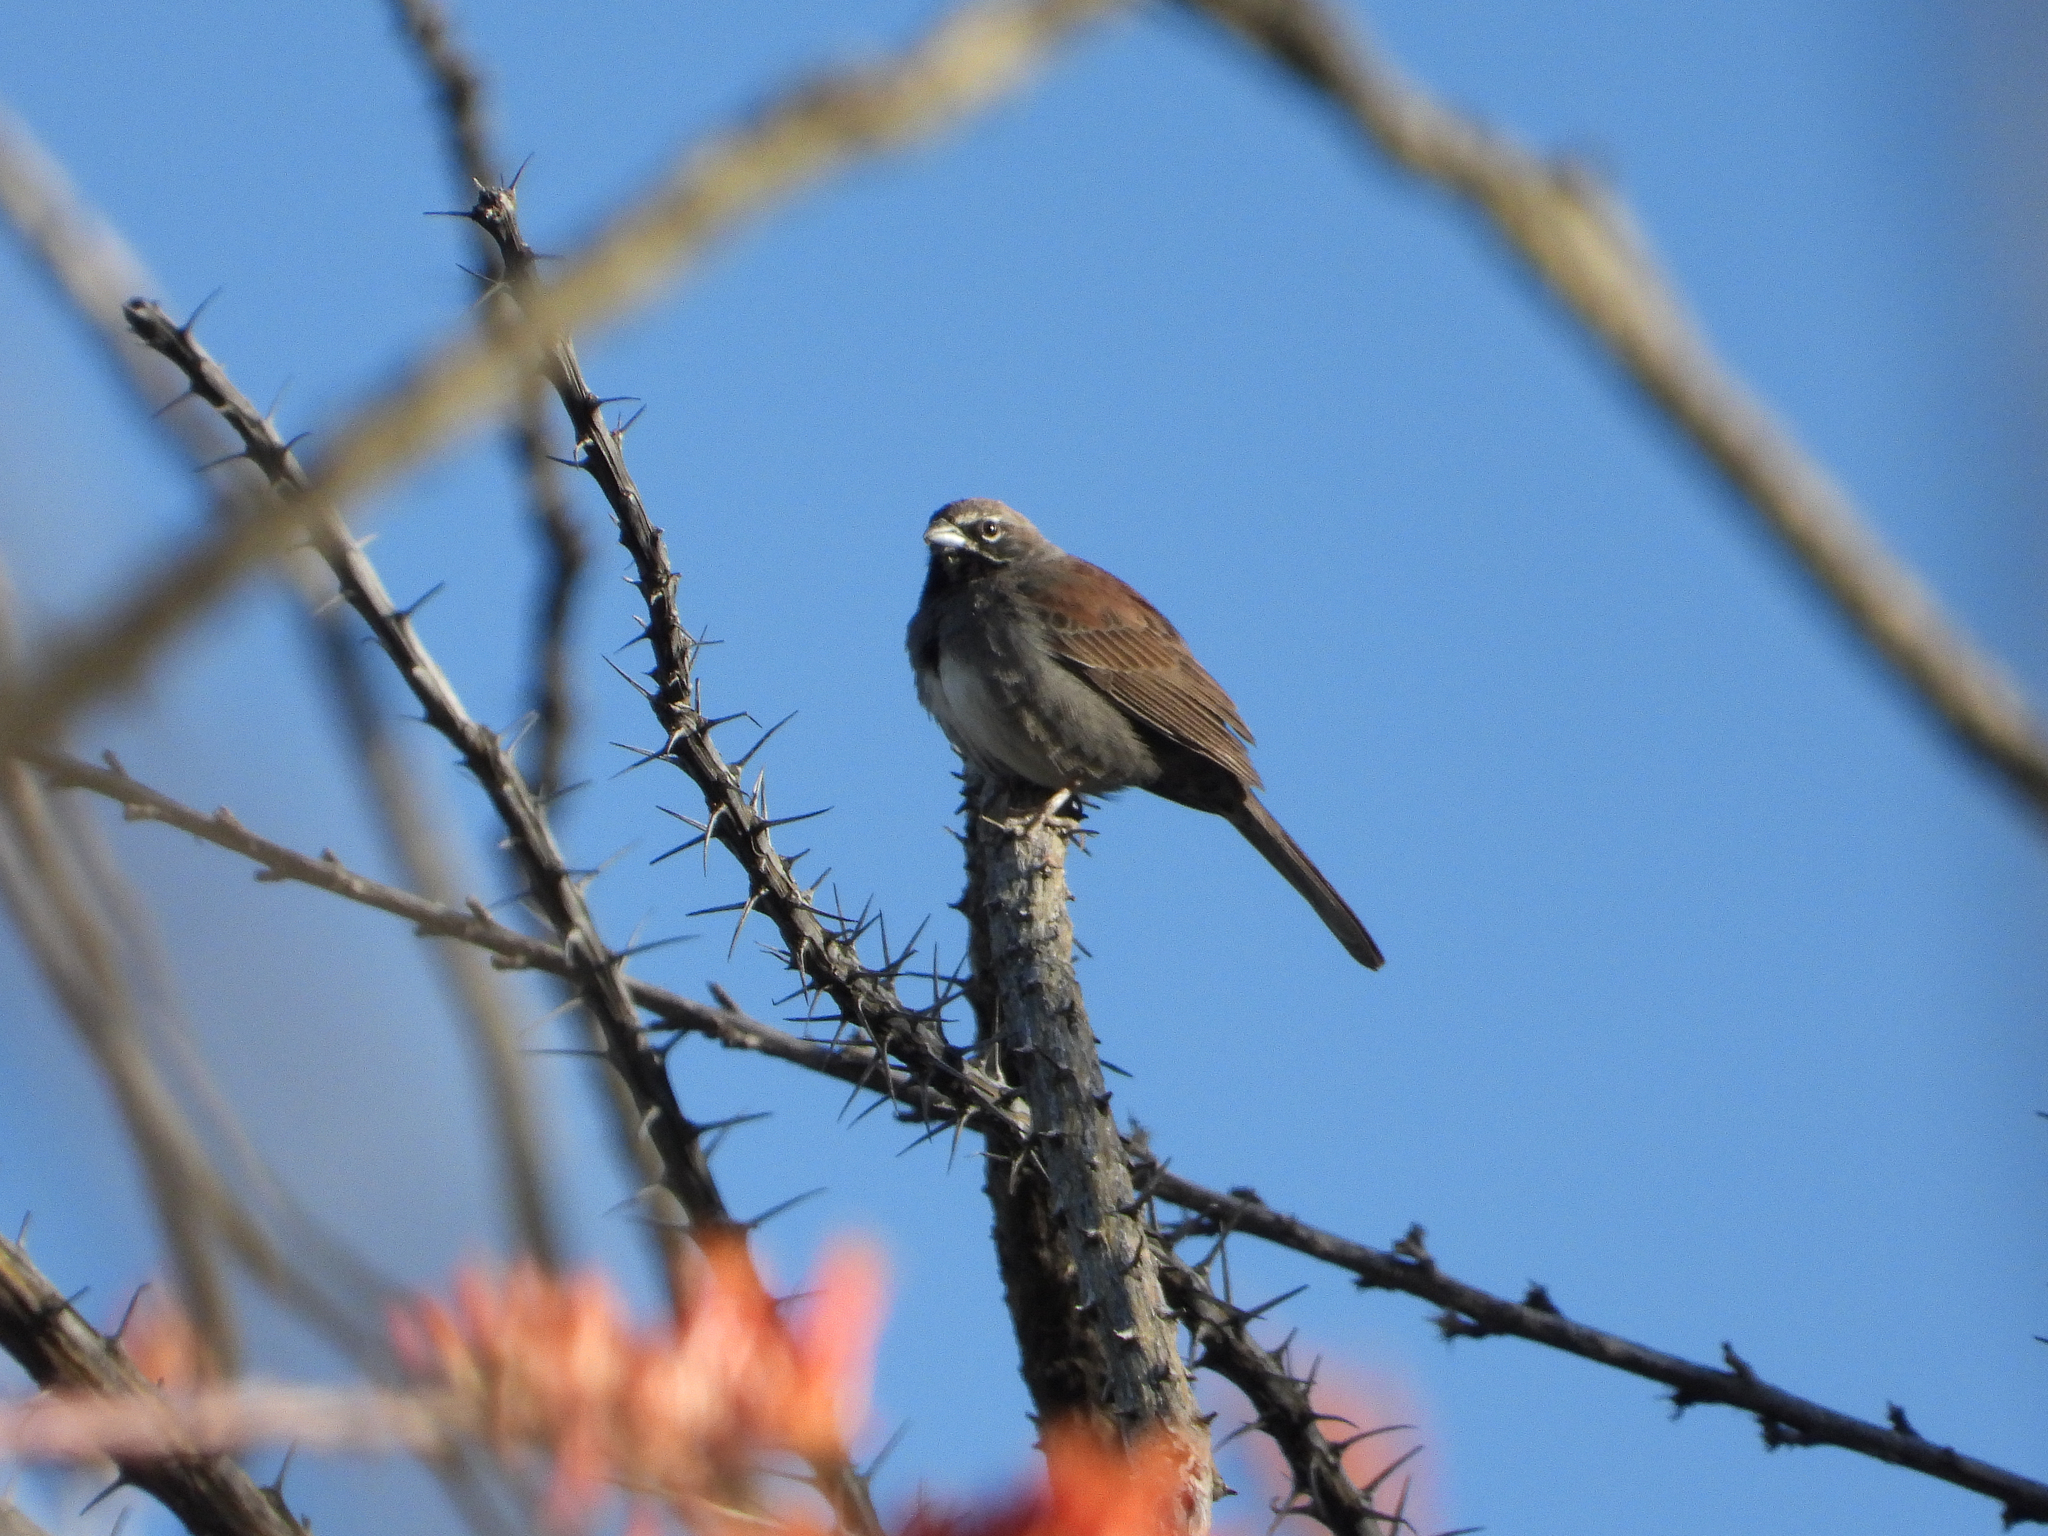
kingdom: Animalia
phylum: Chordata
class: Aves
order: Passeriformes
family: Passerellidae
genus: Amphispizopsis
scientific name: Amphispizopsis quinquestriata
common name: Five-striped sparrow
